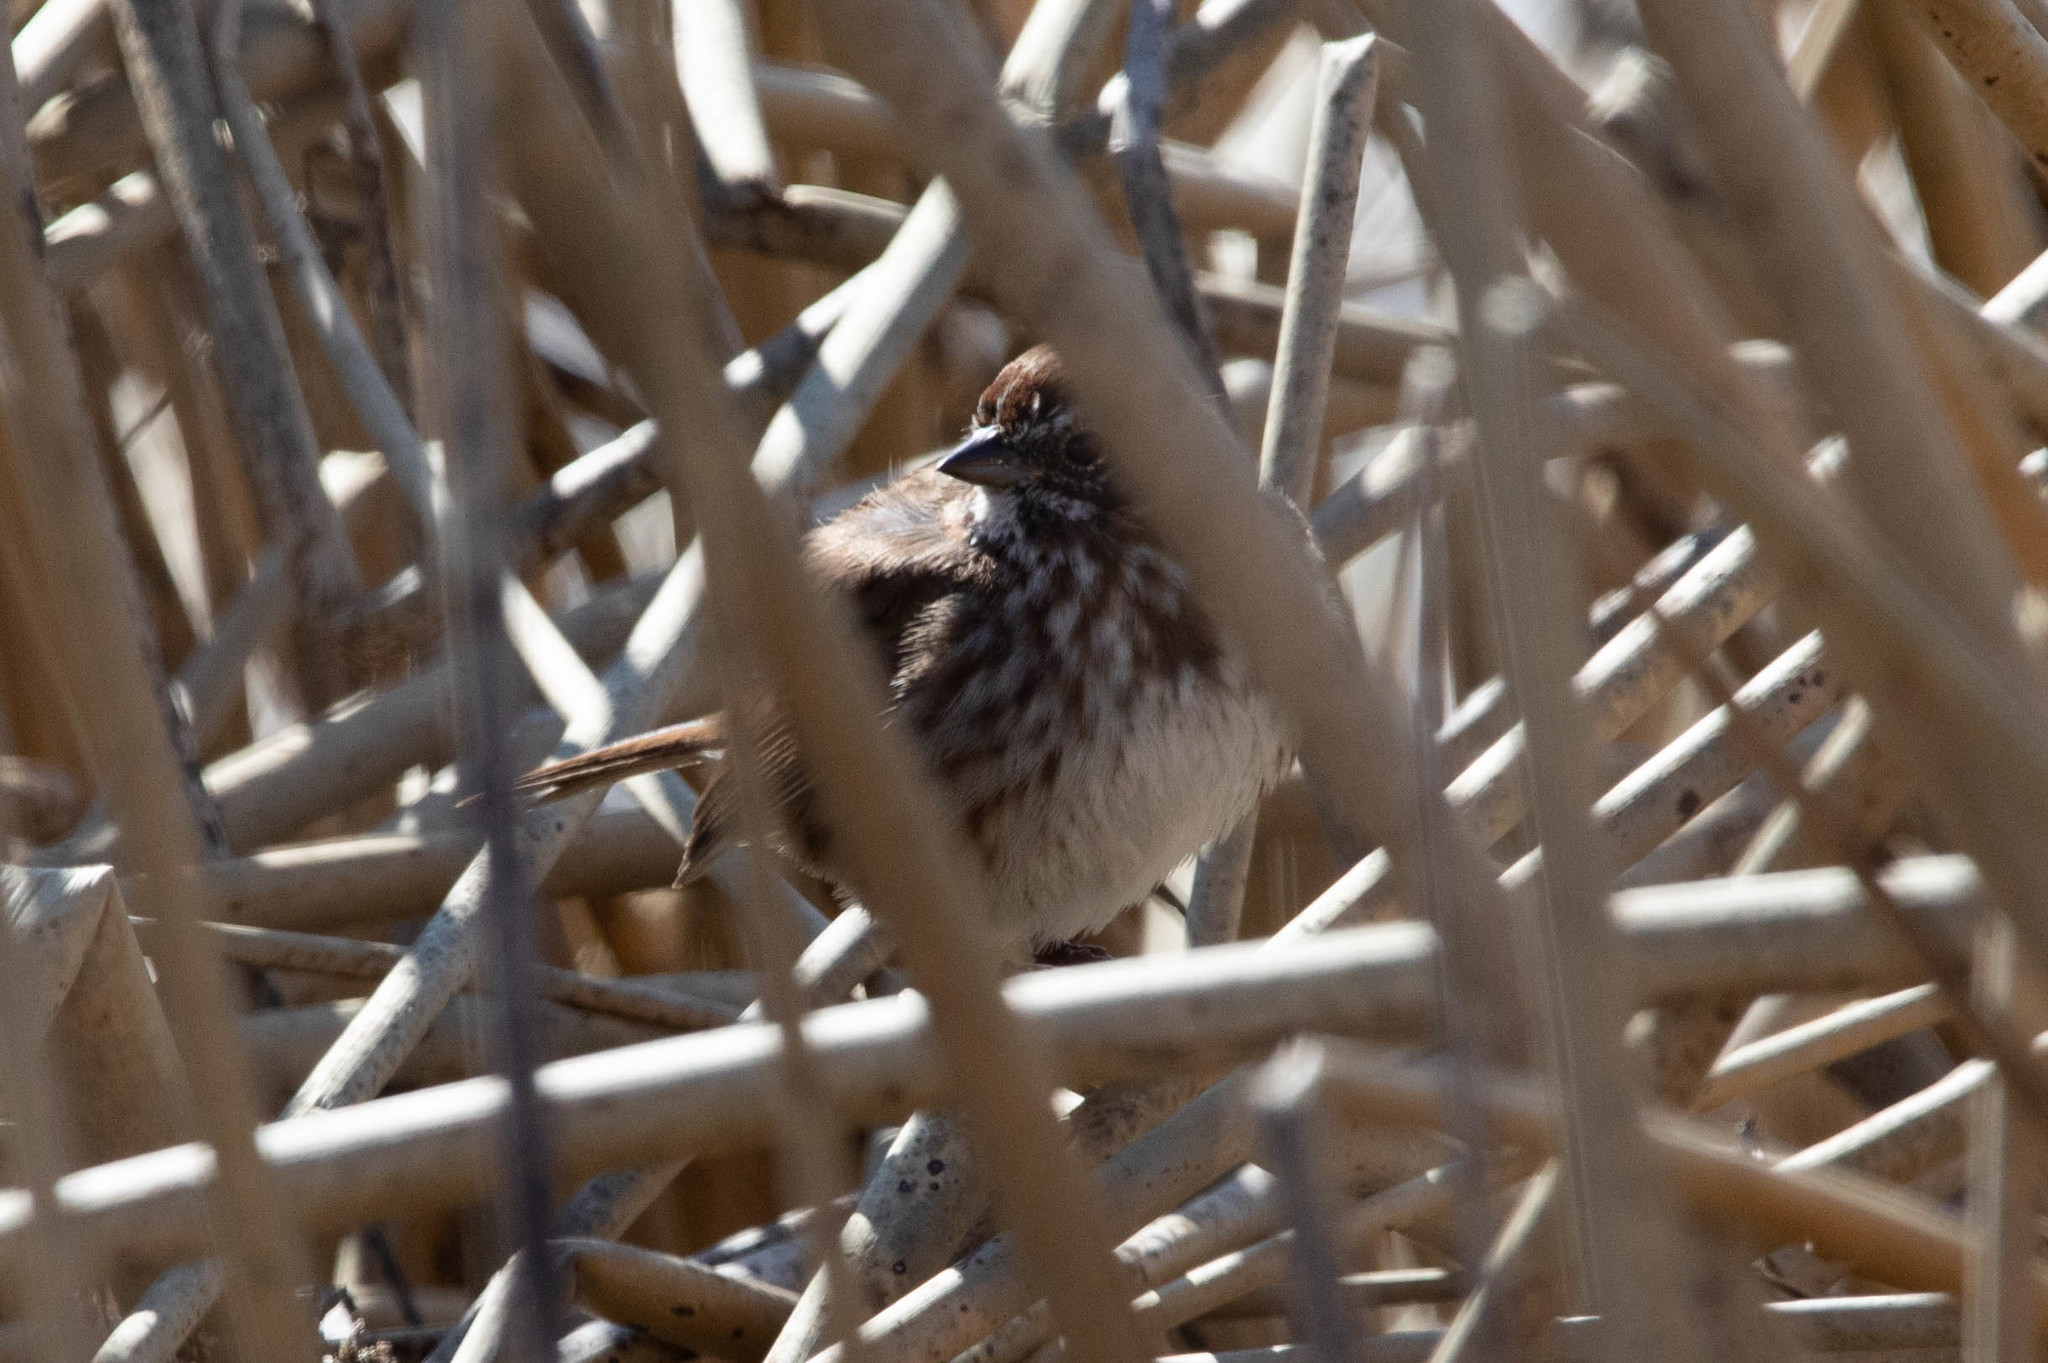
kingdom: Animalia
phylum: Chordata
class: Aves
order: Passeriformes
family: Passerellidae
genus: Melospiza
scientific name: Melospiza melodia
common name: Song sparrow
